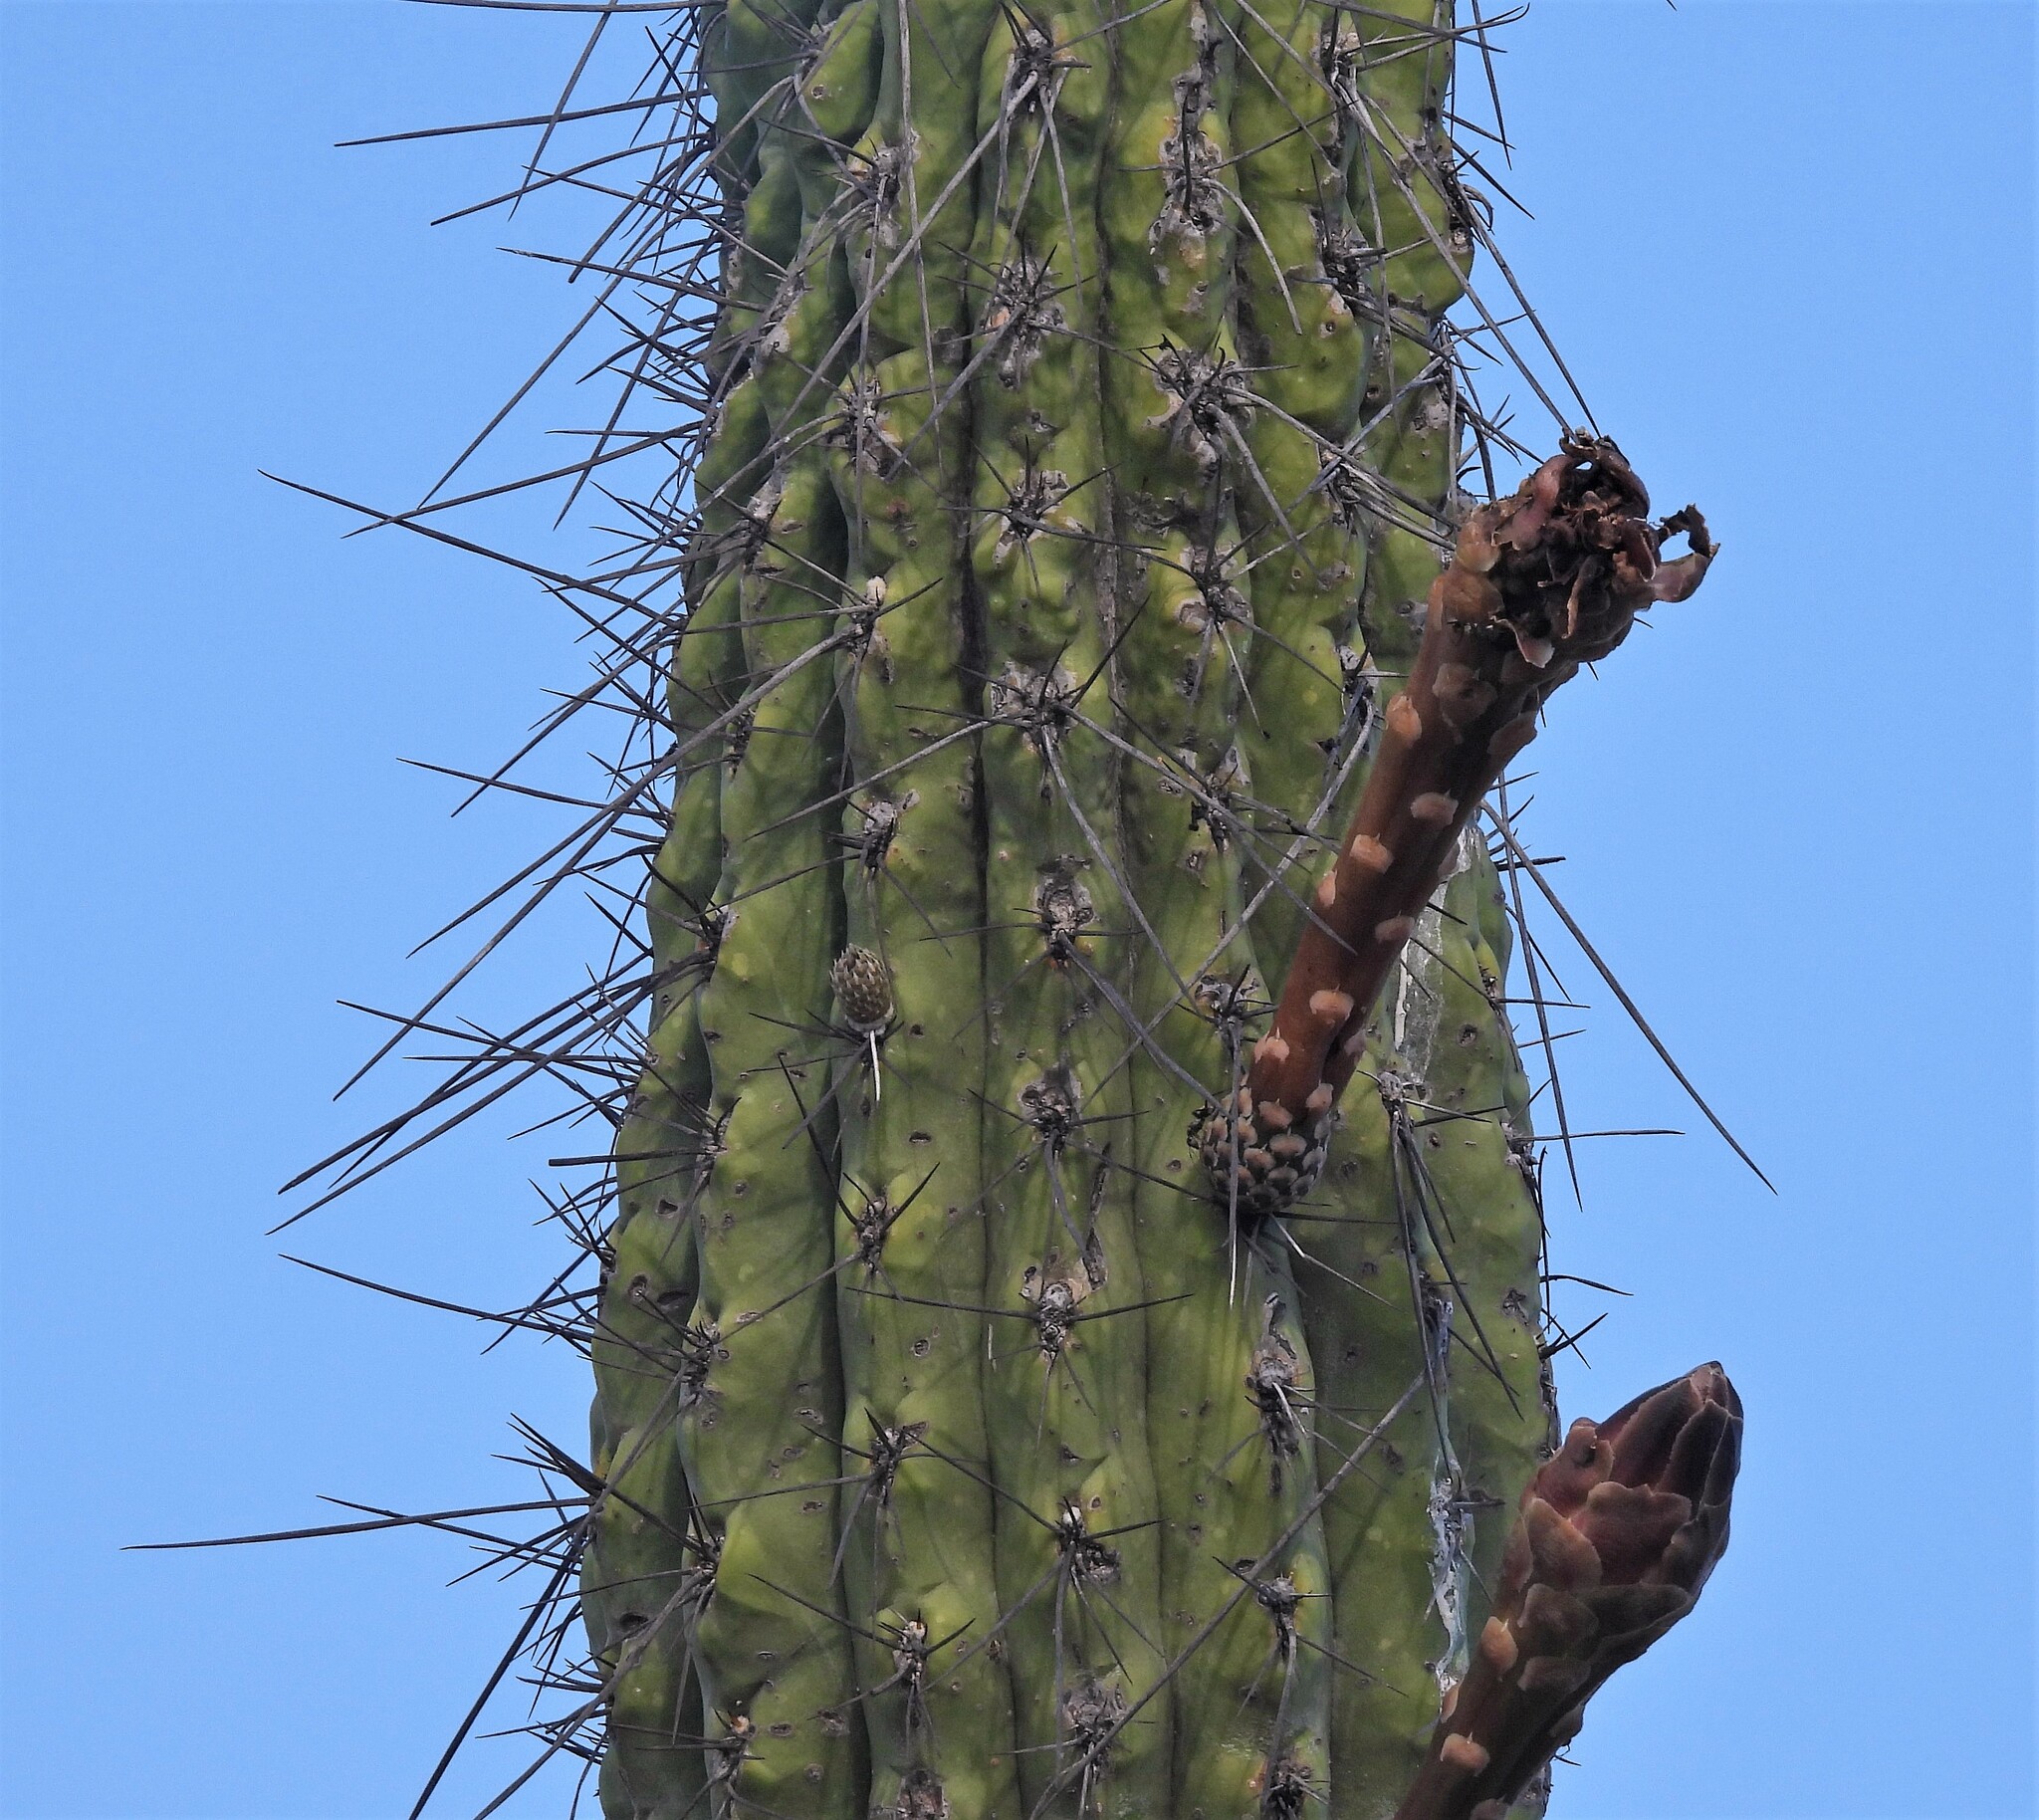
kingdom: Plantae
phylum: Tracheophyta
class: Magnoliopsida
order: Caryophyllales
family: Cactaceae
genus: Stetsonia
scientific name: Stetsonia coryne
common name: Toothpick cactus
